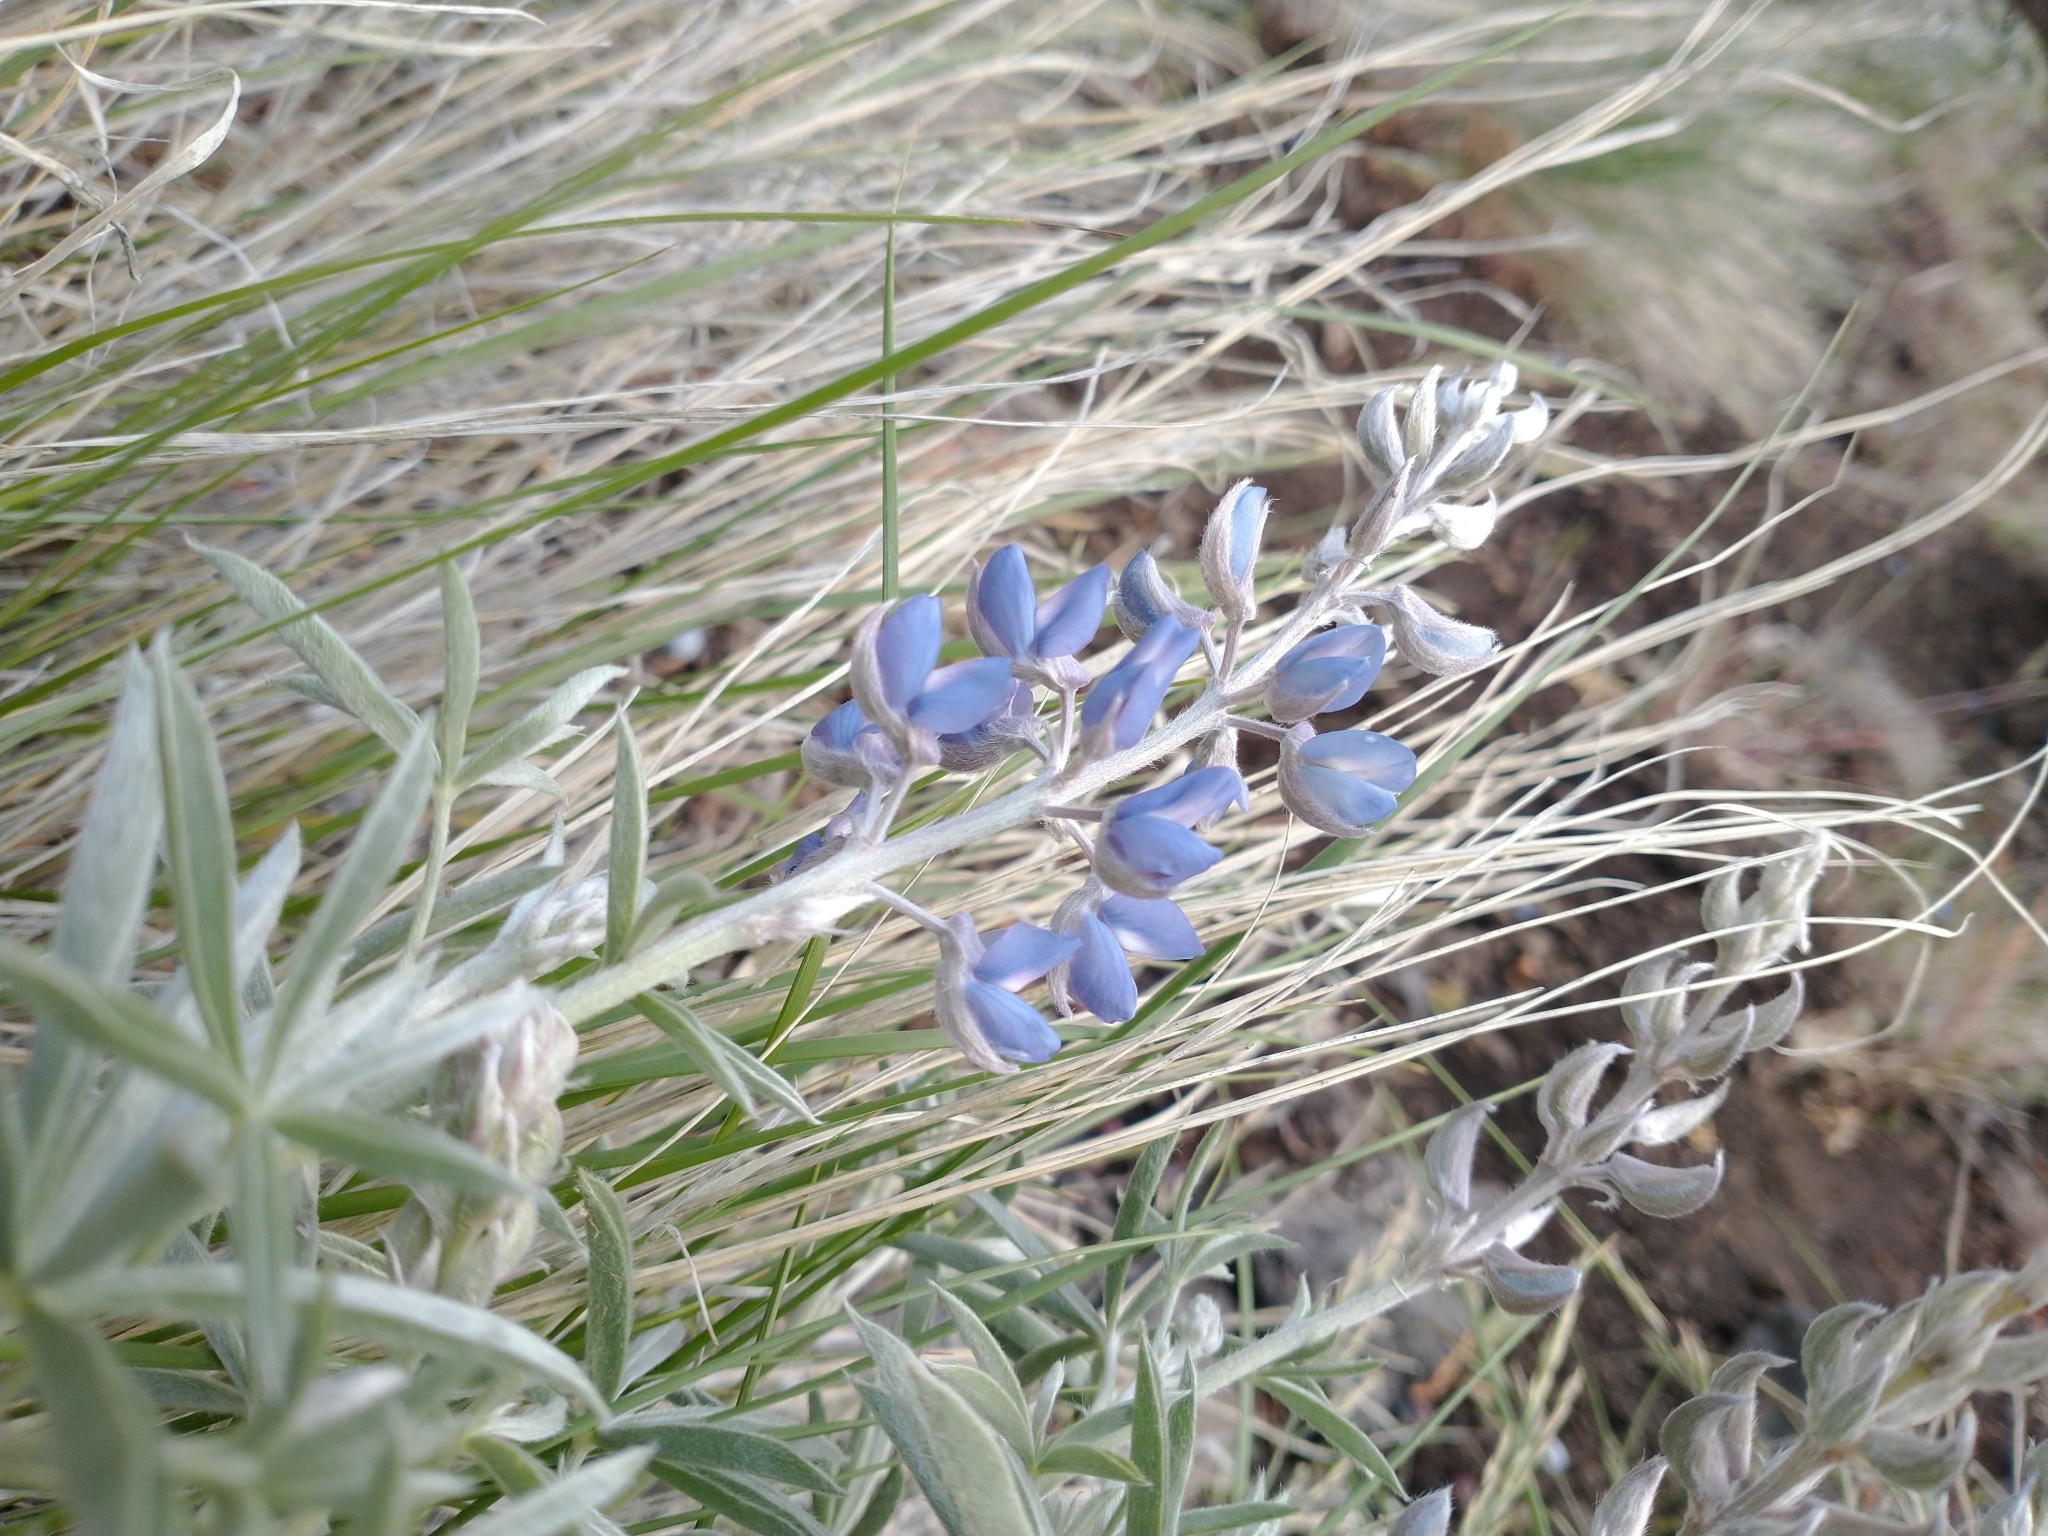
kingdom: Plantae
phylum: Tracheophyta
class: Magnoliopsida
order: Fabales
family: Fabaceae
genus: Lupinus
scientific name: Lupinus argenteus
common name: Silvery lupine
